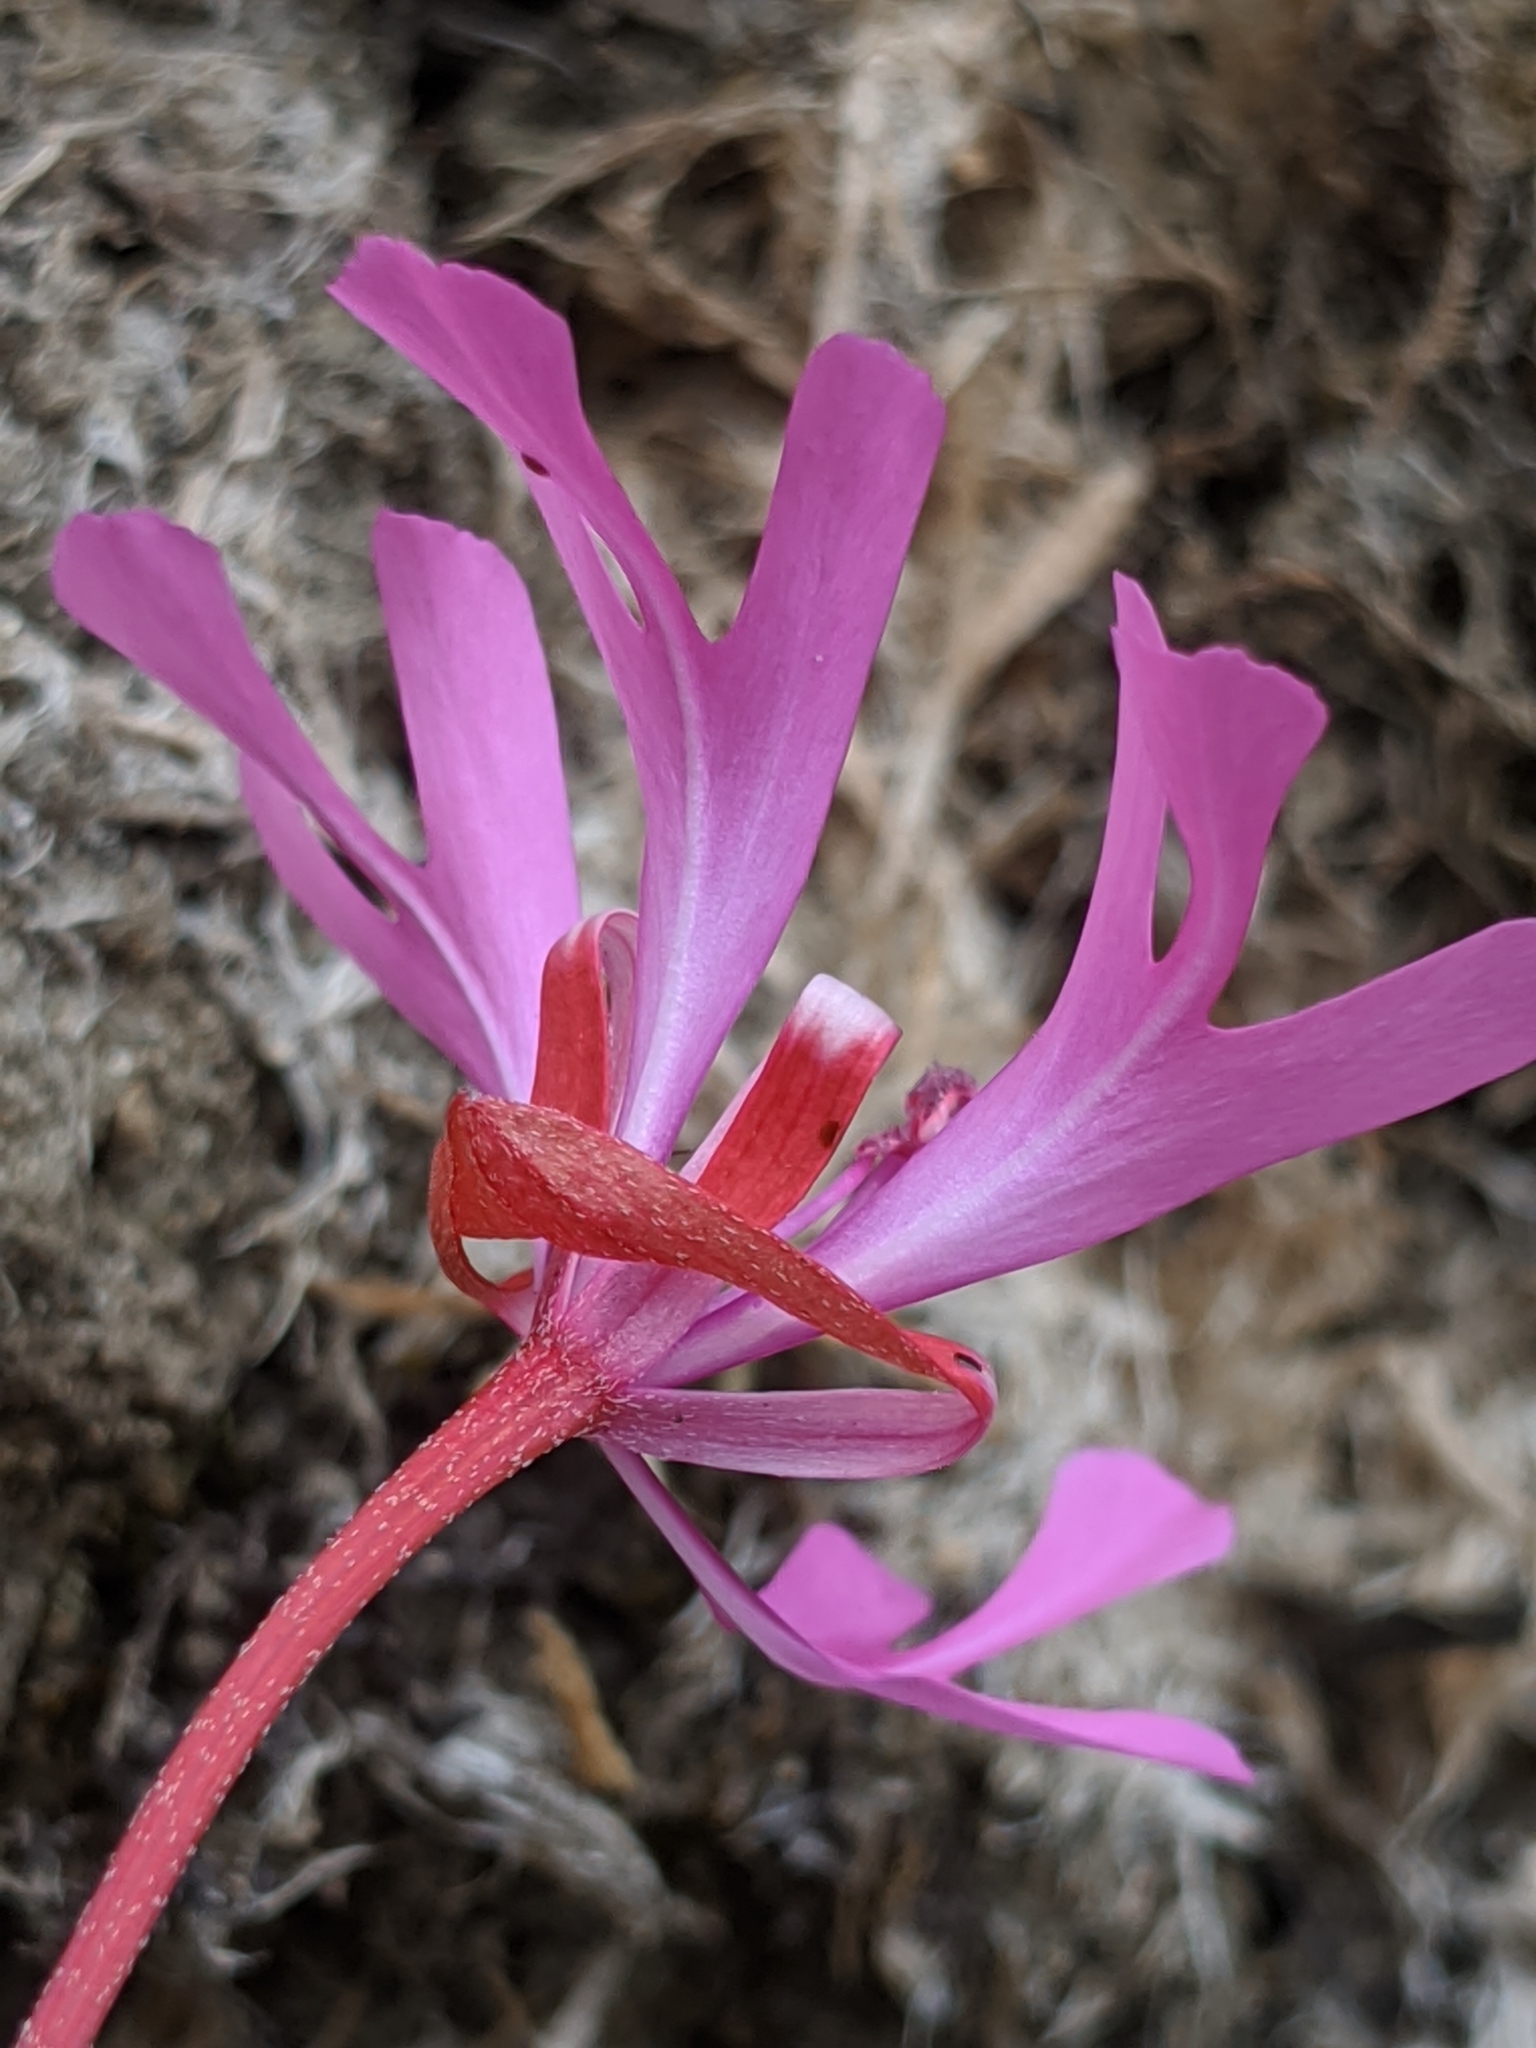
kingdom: Plantae
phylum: Tracheophyta
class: Magnoliopsida
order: Myrtales
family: Onagraceae
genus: Clarkia
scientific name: Clarkia concinna
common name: Red-ribbons
